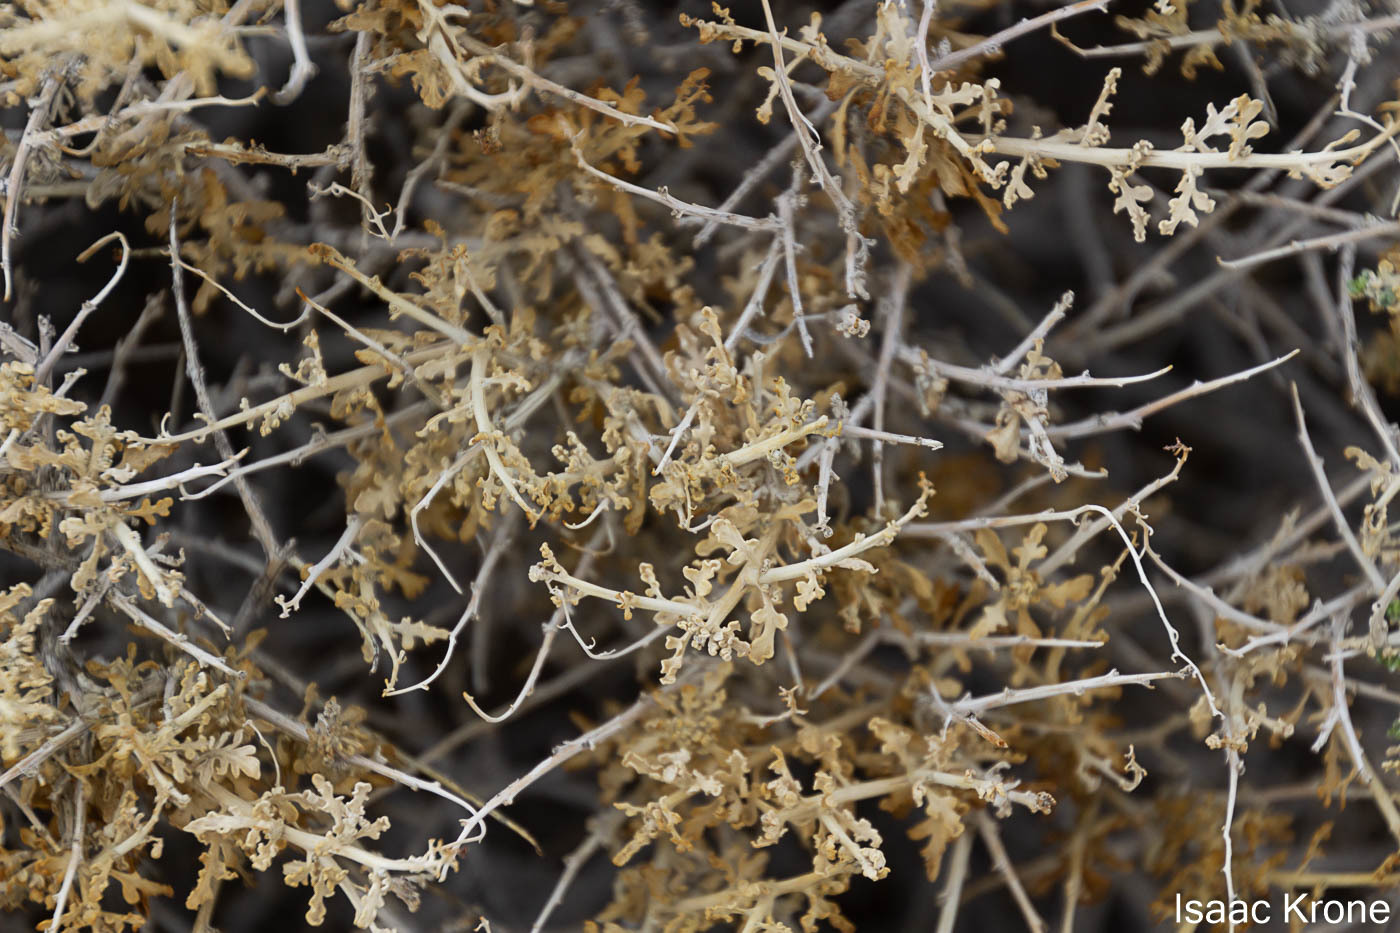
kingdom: Plantae
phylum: Tracheophyta
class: Magnoliopsida
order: Asterales
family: Asteraceae
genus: Ambrosia
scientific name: Ambrosia dumosa
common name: Bur-sage
